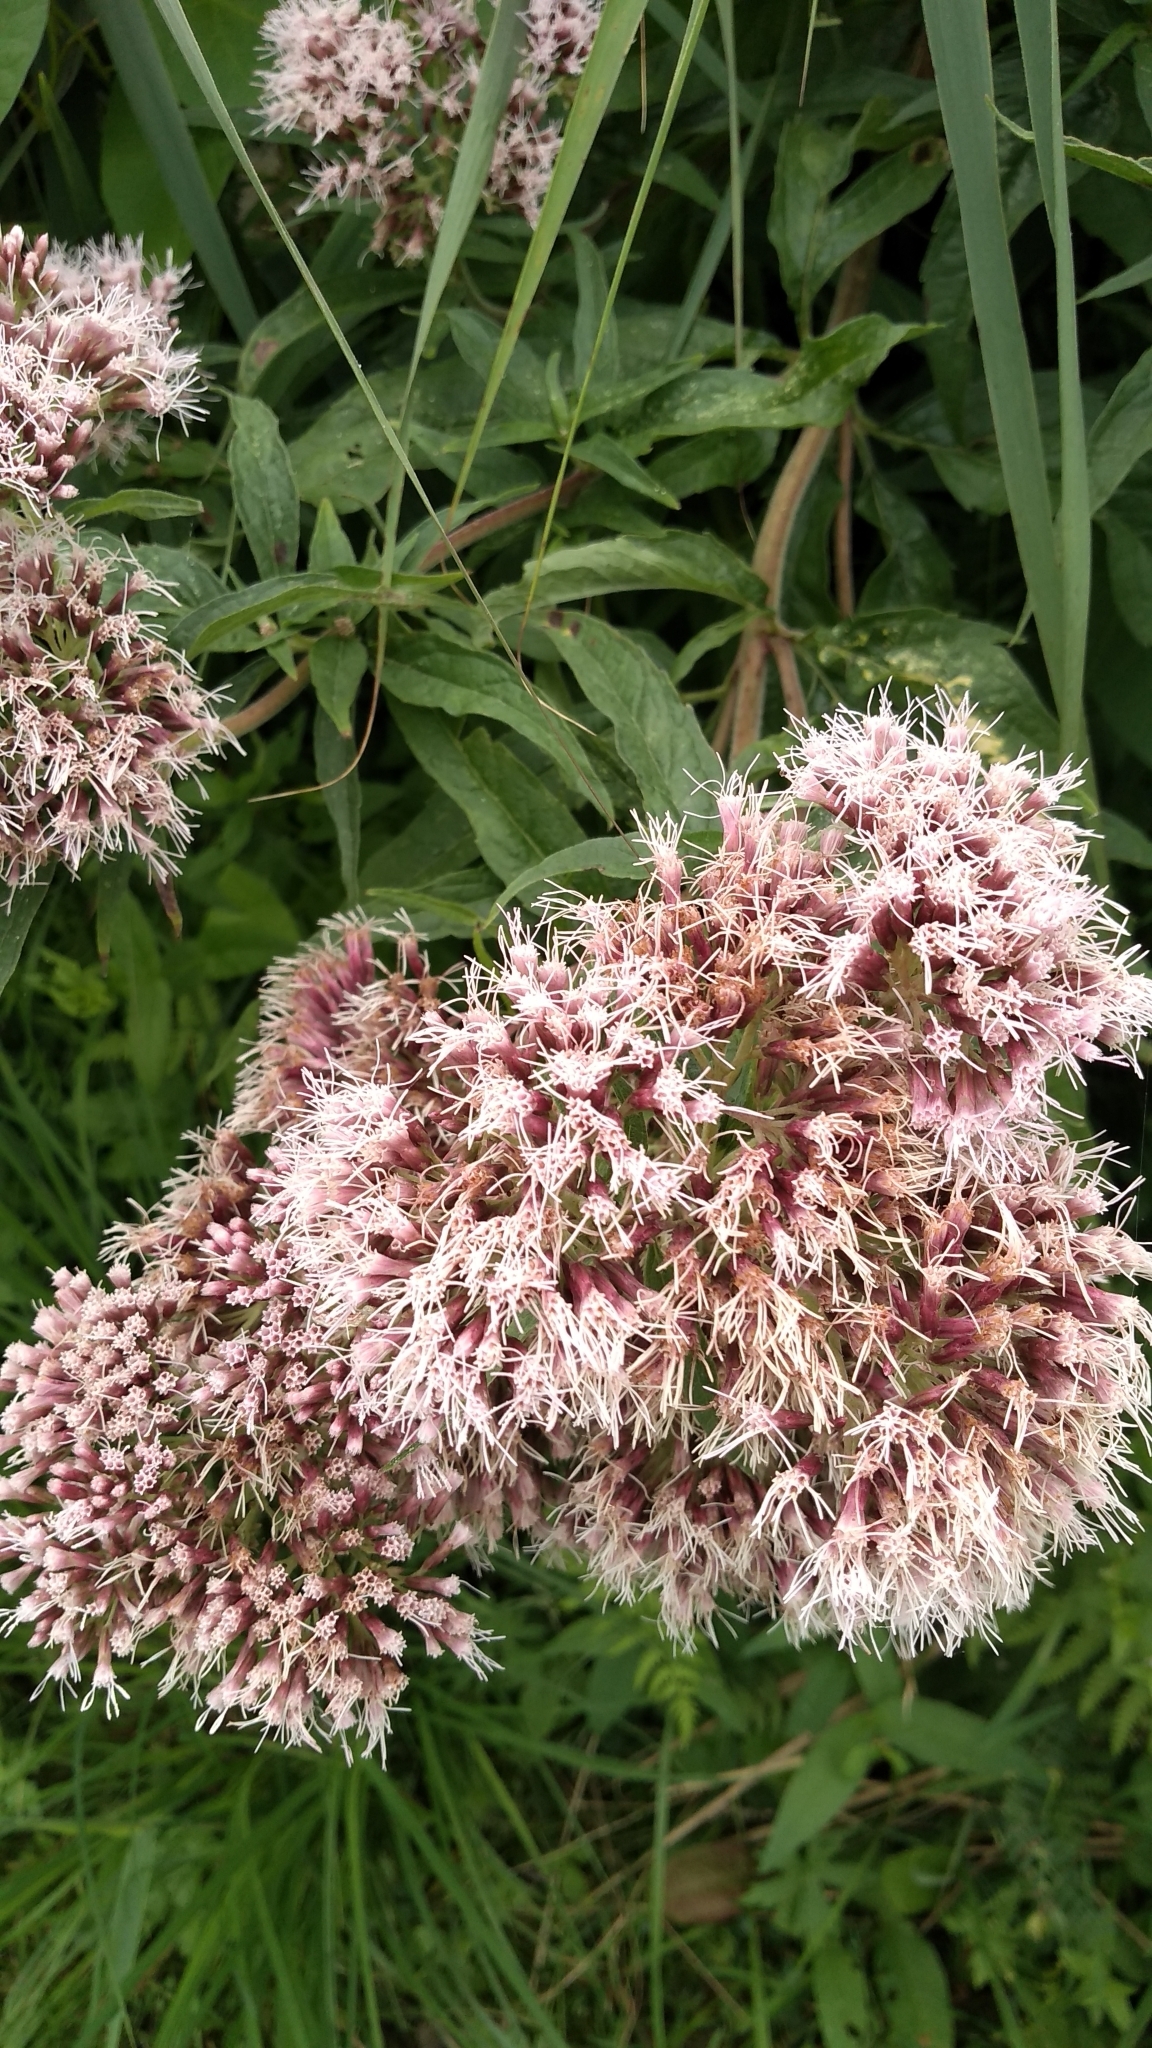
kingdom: Plantae
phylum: Tracheophyta
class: Magnoliopsida
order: Asterales
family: Asteraceae
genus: Eupatorium
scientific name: Eupatorium cannabinum
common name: Hemp-agrimony
